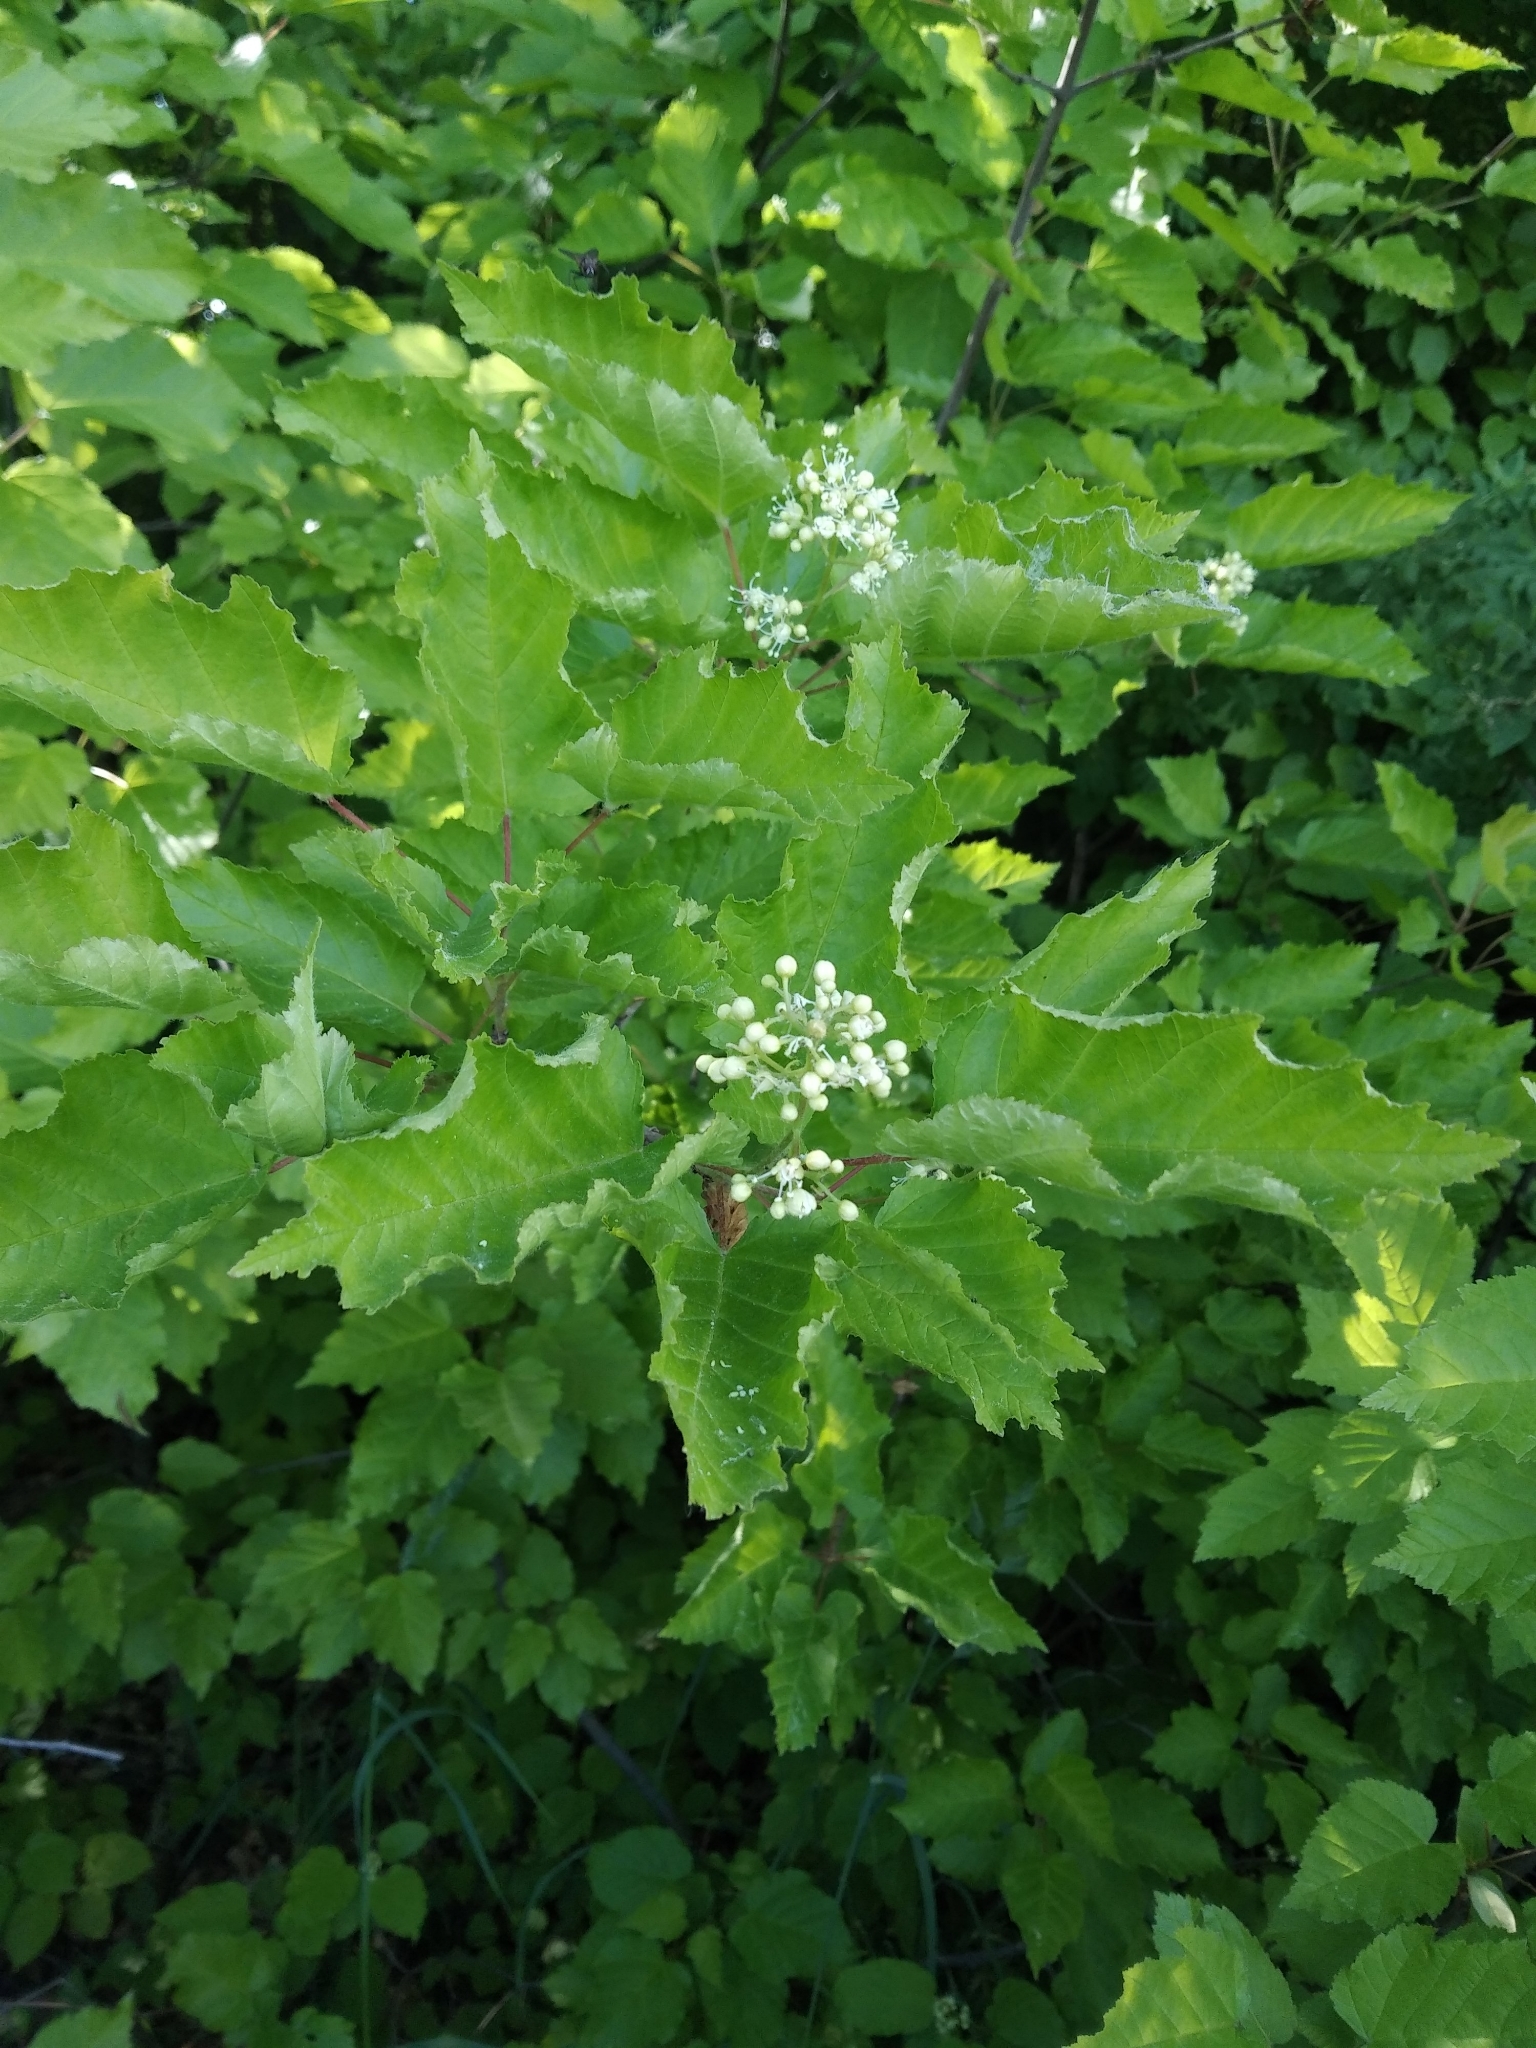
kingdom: Plantae
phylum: Tracheophyta
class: Magnoliopsida
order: Sapindales
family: Sapindaceae
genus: Acer
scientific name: Acer tataricum
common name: Tartar maple
